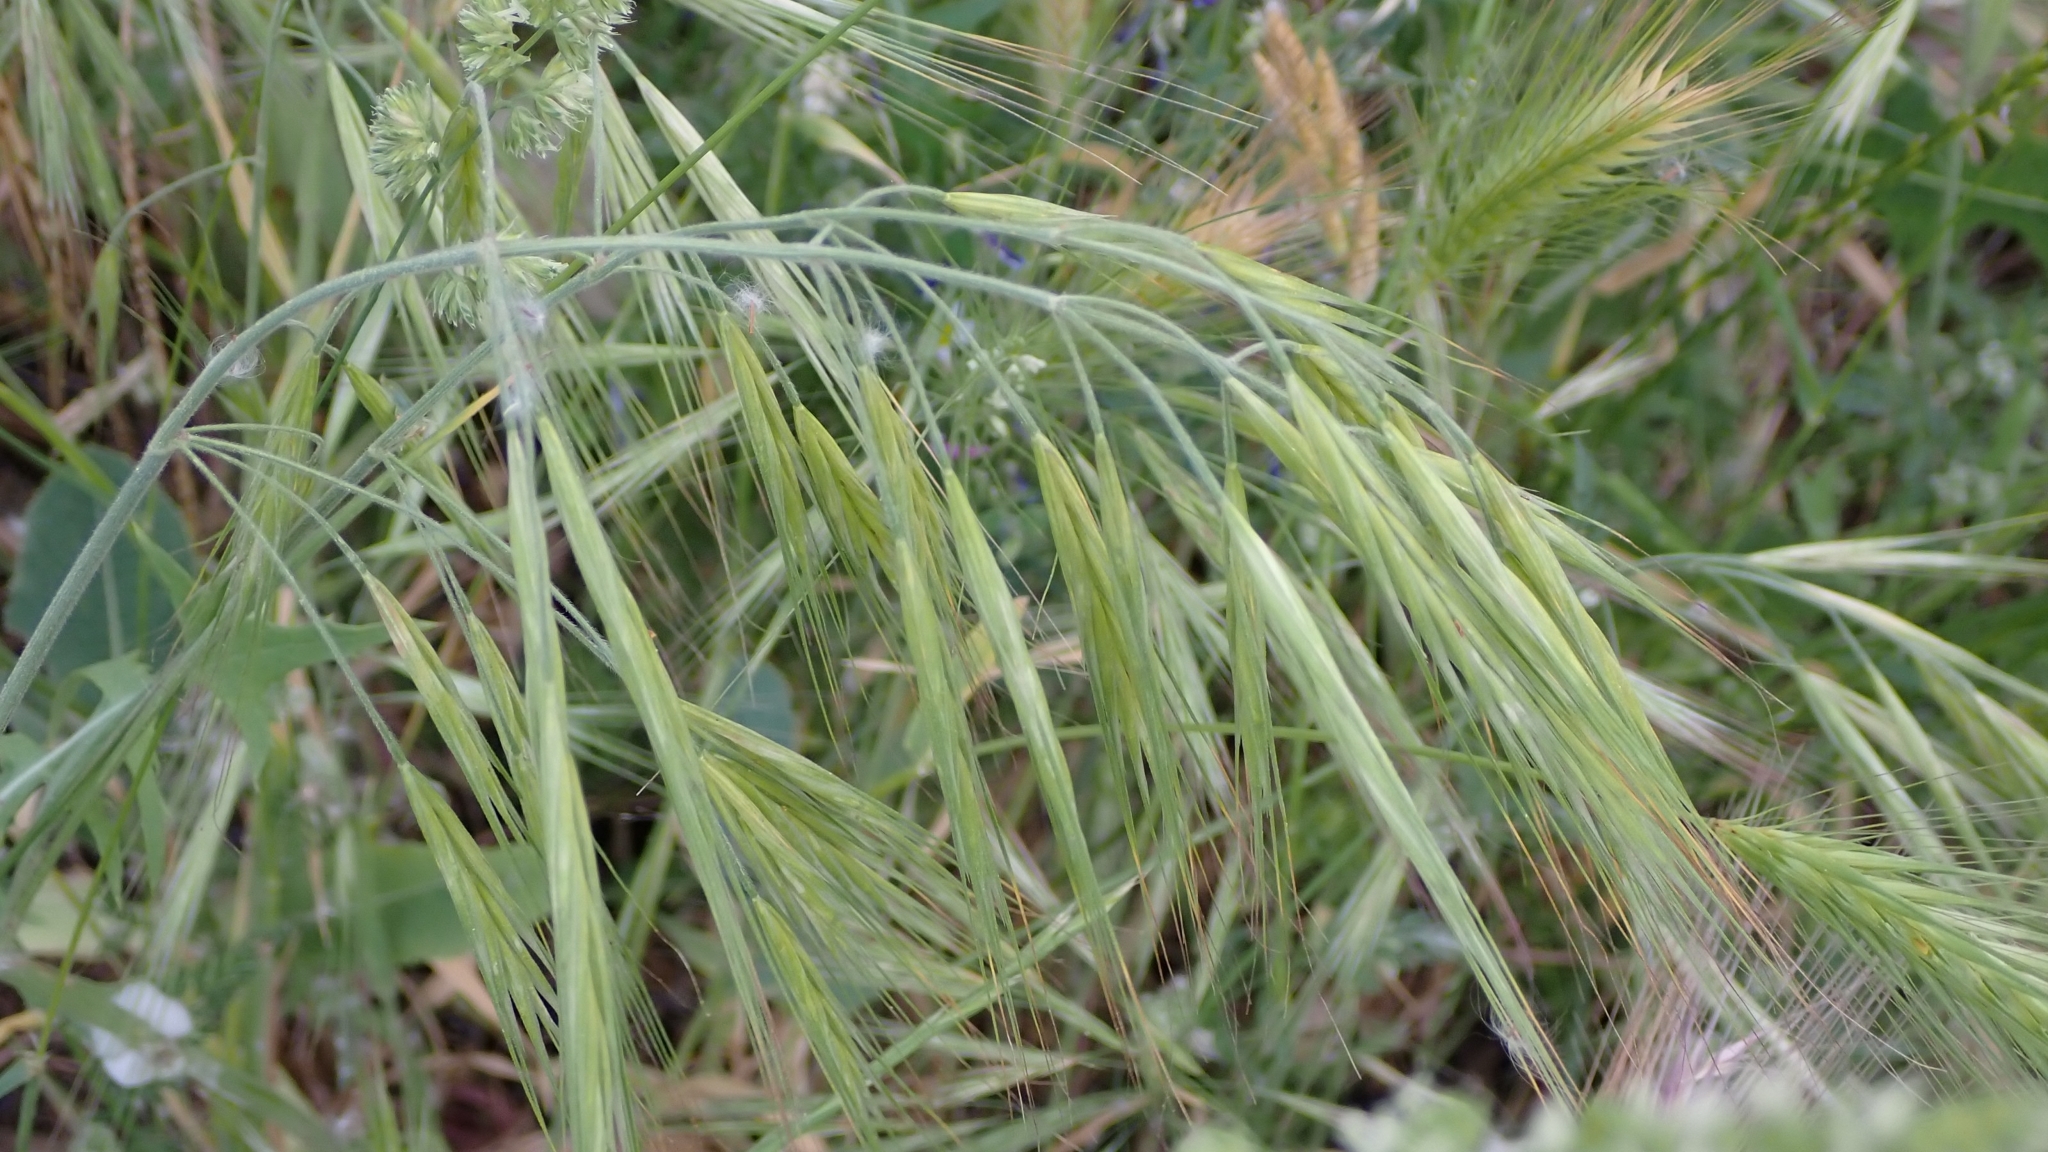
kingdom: Plantae
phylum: Tracheophyta
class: Liliopsida
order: Poales
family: Poaceae
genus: Bromus
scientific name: Bromus diandrus
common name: Ripgut brome
